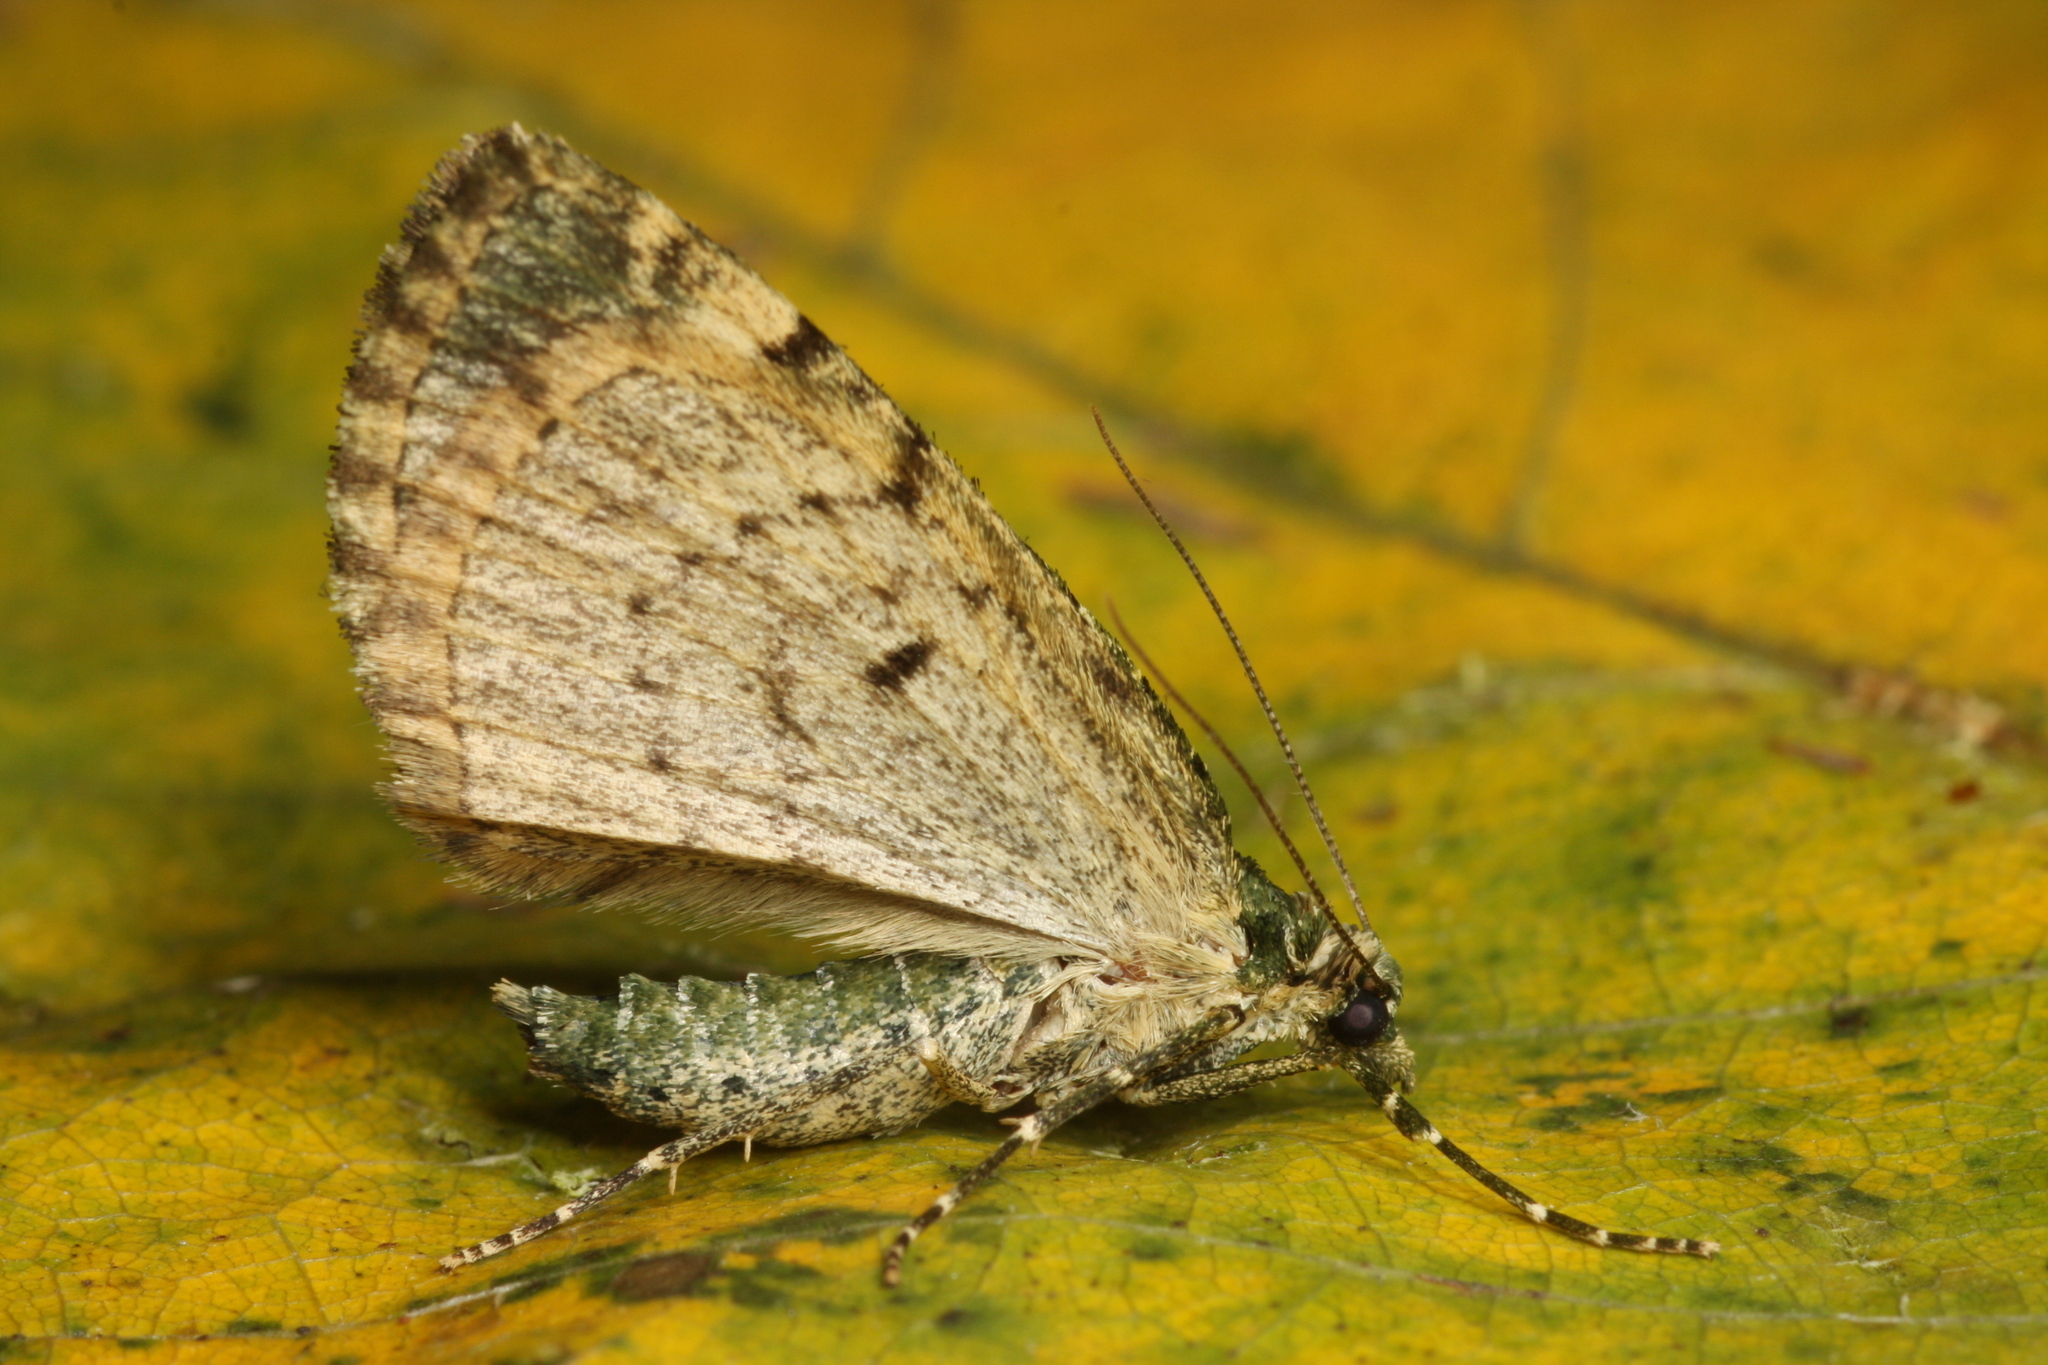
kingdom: Animalia
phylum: Arthropoda
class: Insecta
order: Lepidoptera
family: Geometridae
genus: Chloroclysta
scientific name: Chloroclysta siterata
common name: Red-green carpet
